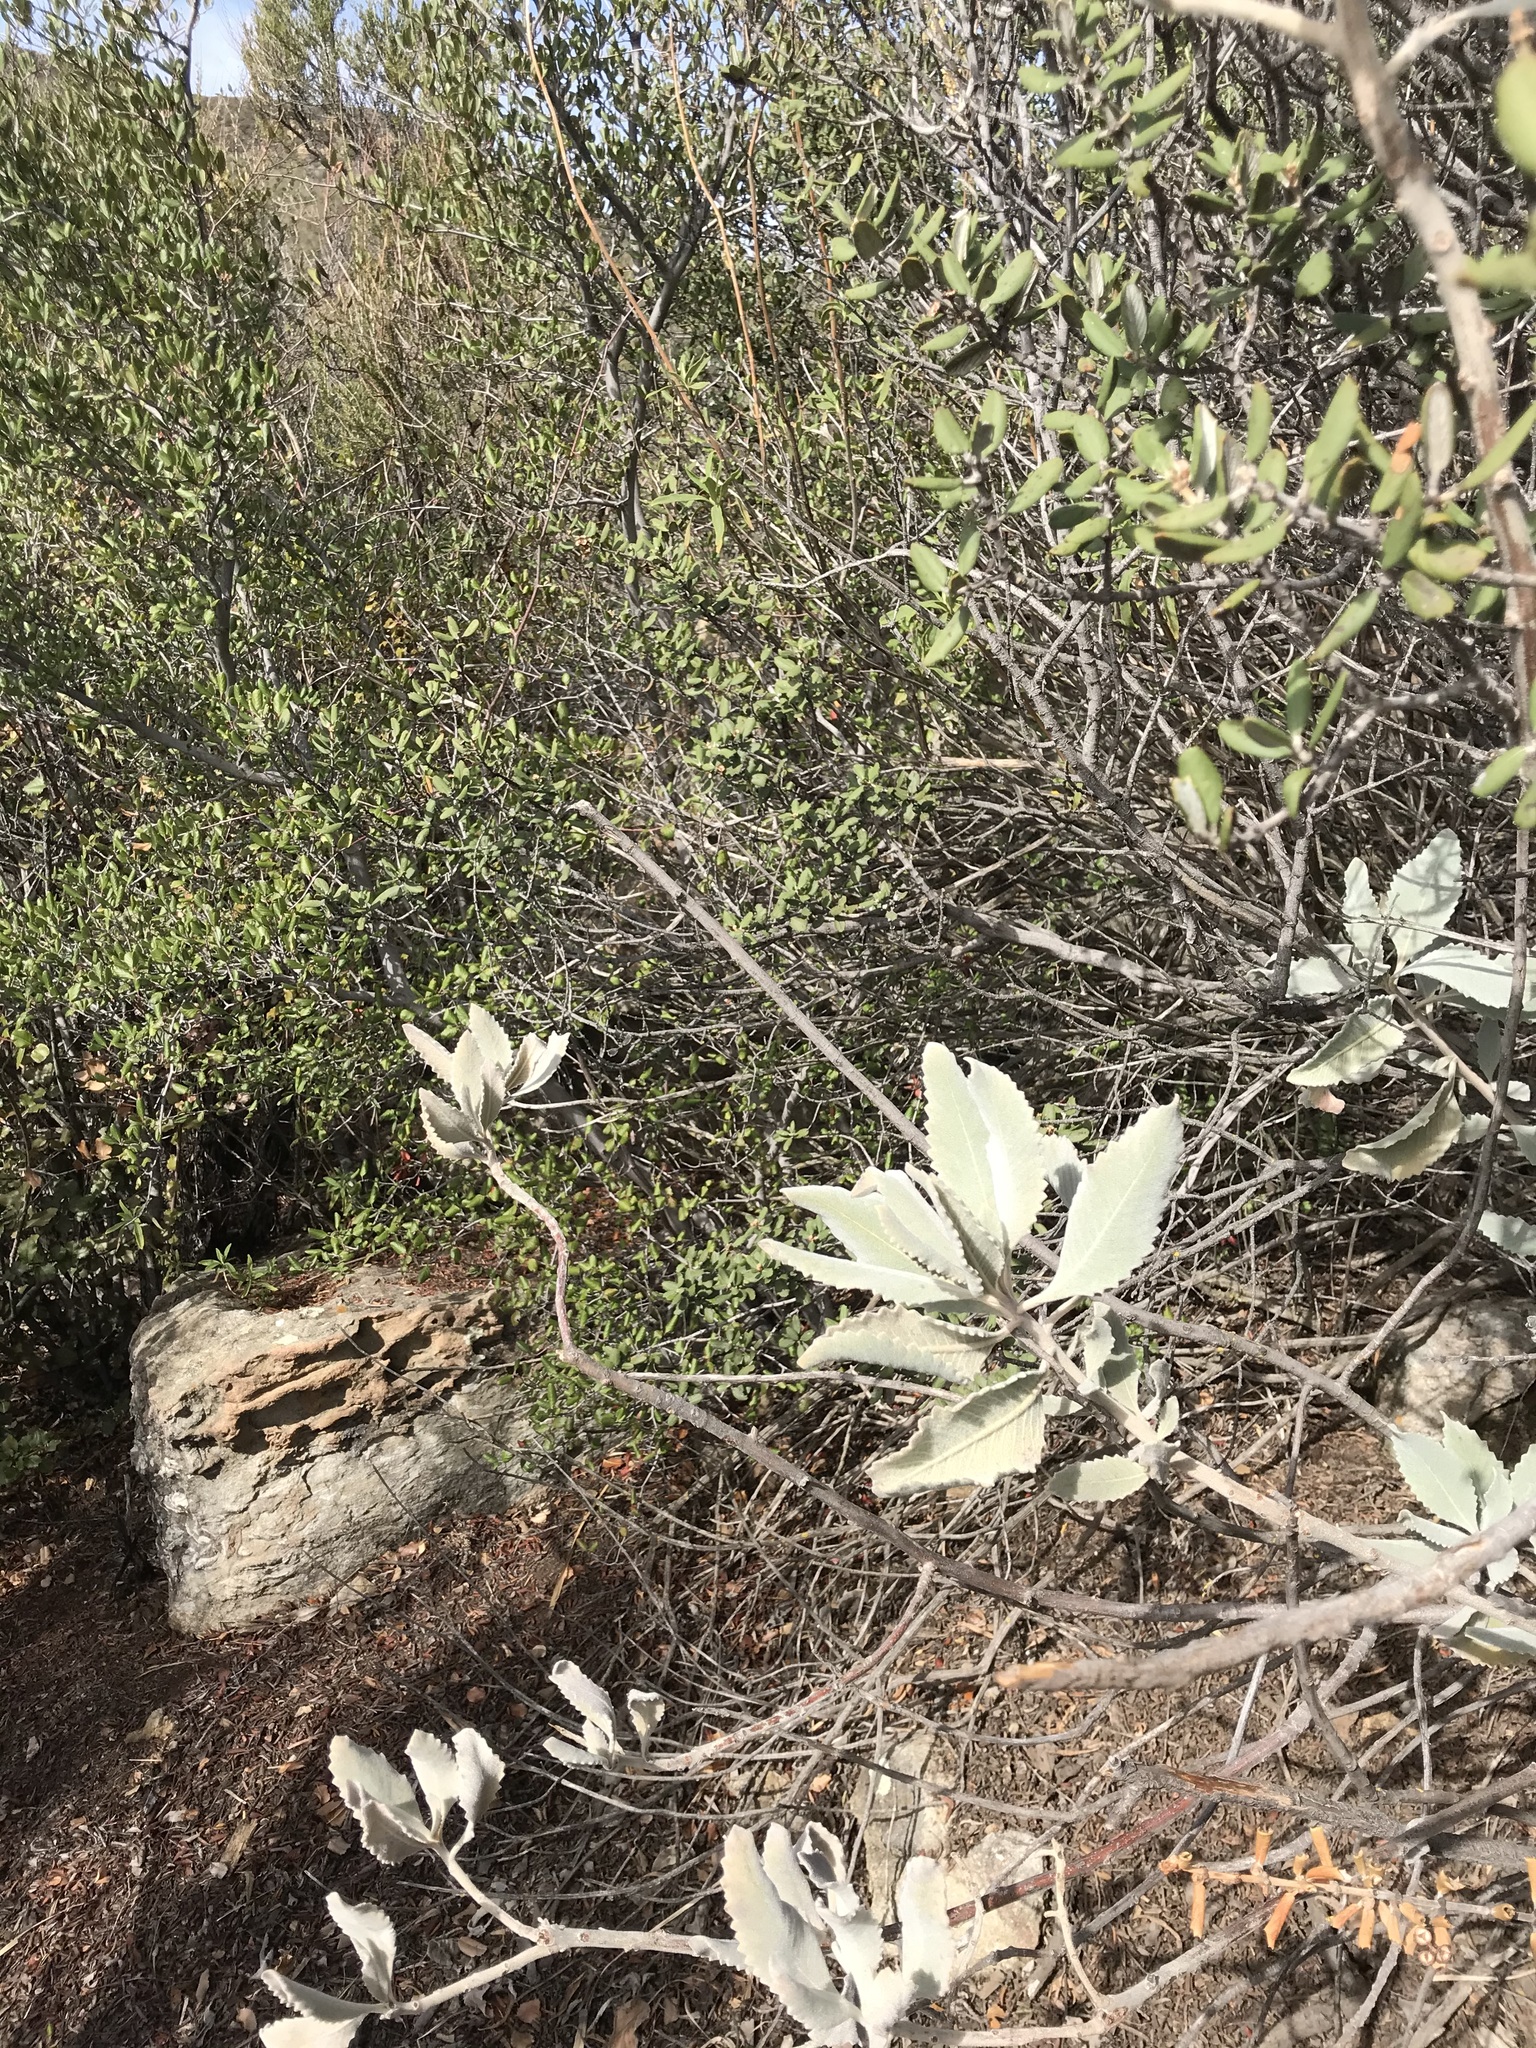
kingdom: Plantae
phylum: Tracheophyta
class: Magnoliopsida
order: Boraginales
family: Namaceae
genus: Eriodictyon
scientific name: Eriodictyon crassifolium
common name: Thick-leaf yerba-santa
